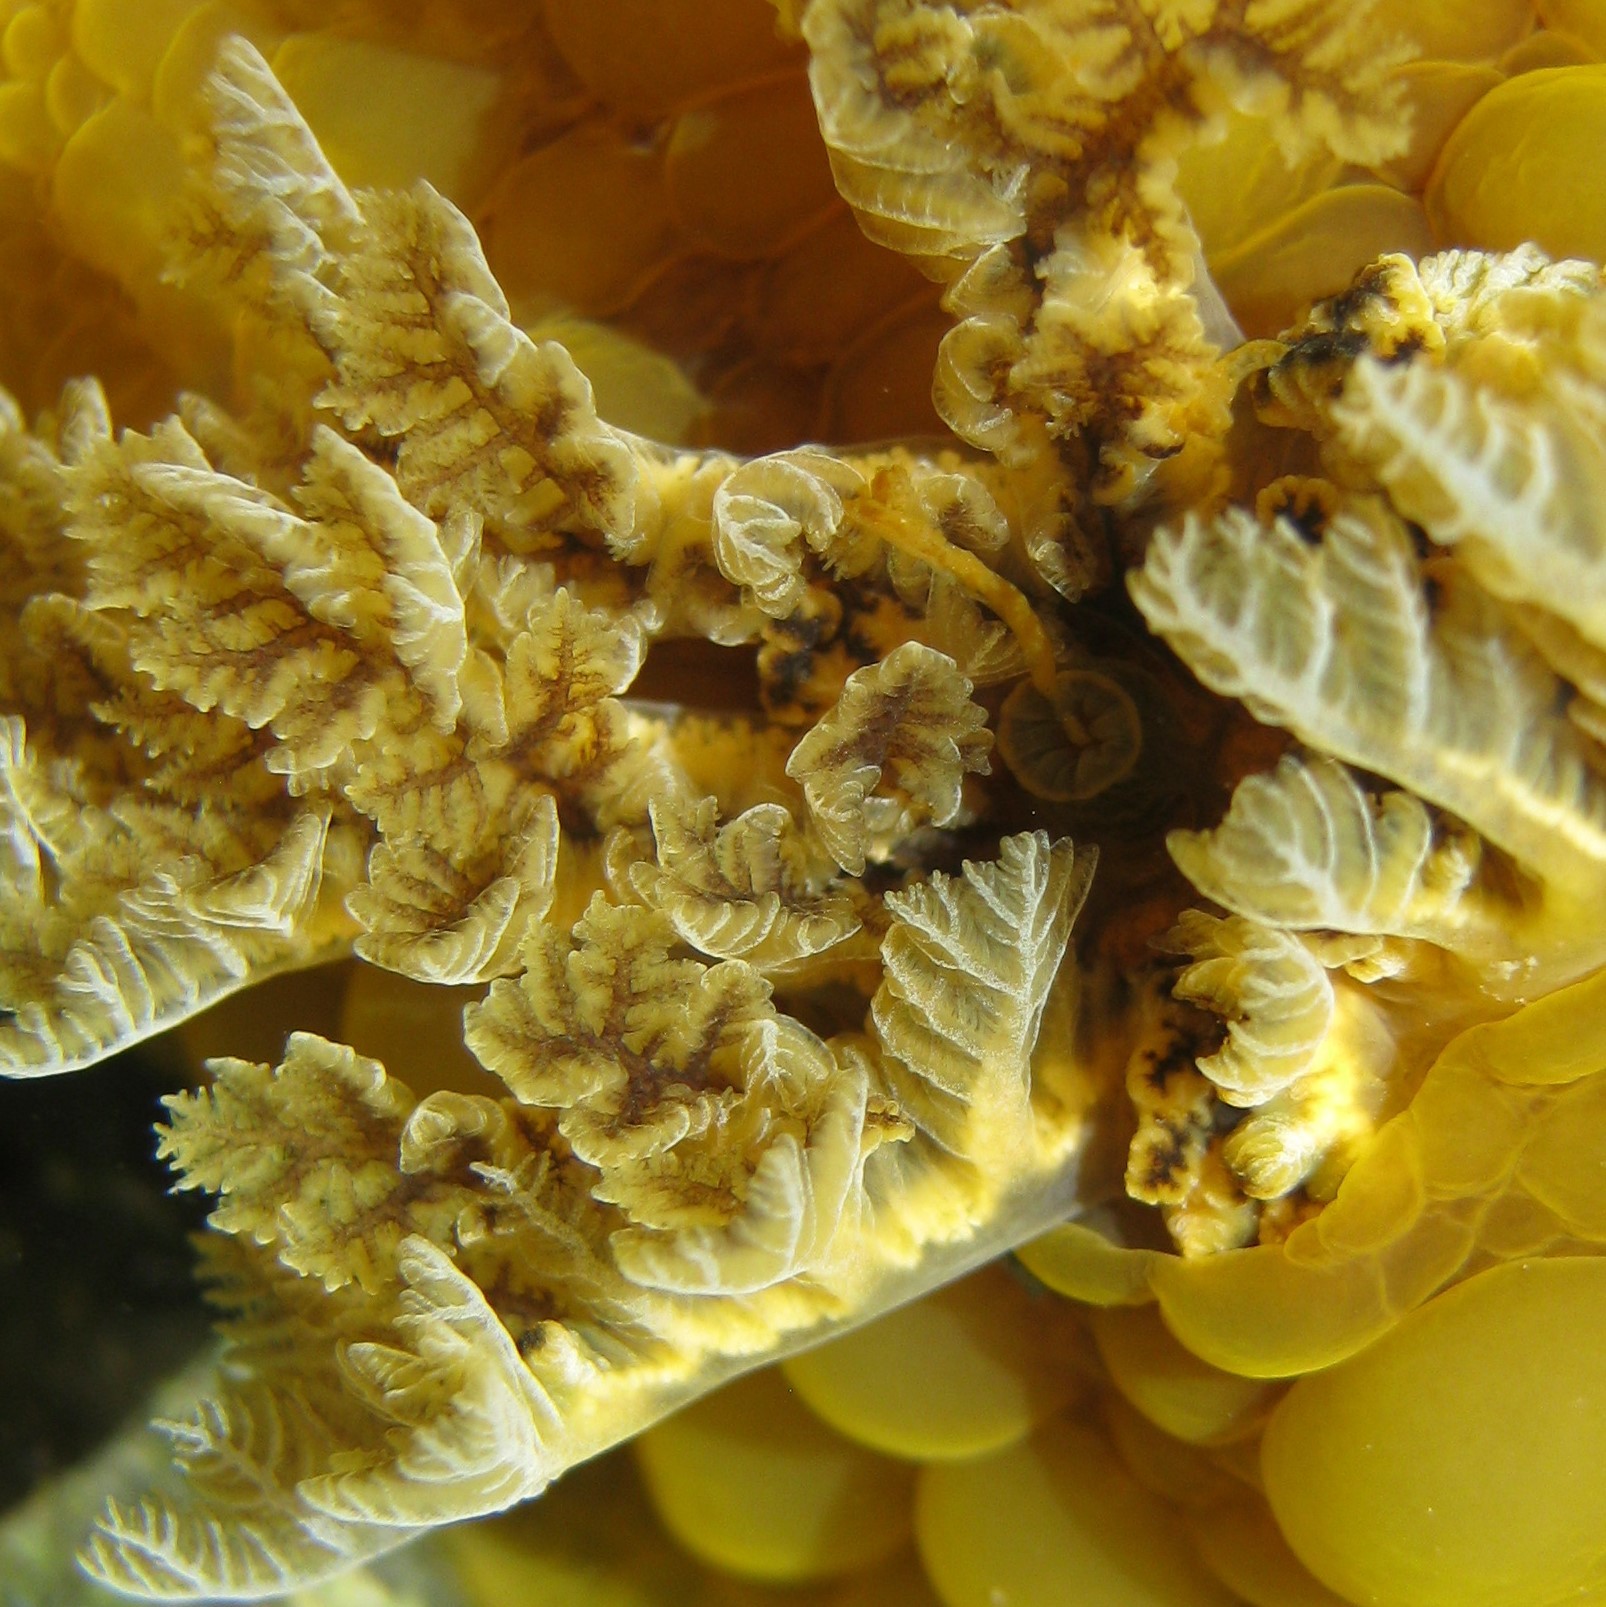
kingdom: Animalia
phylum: Mollusca
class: Gastropoda
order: Nudibranchia
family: Dorididae
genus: Doris
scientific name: Doris wellingtonensis
